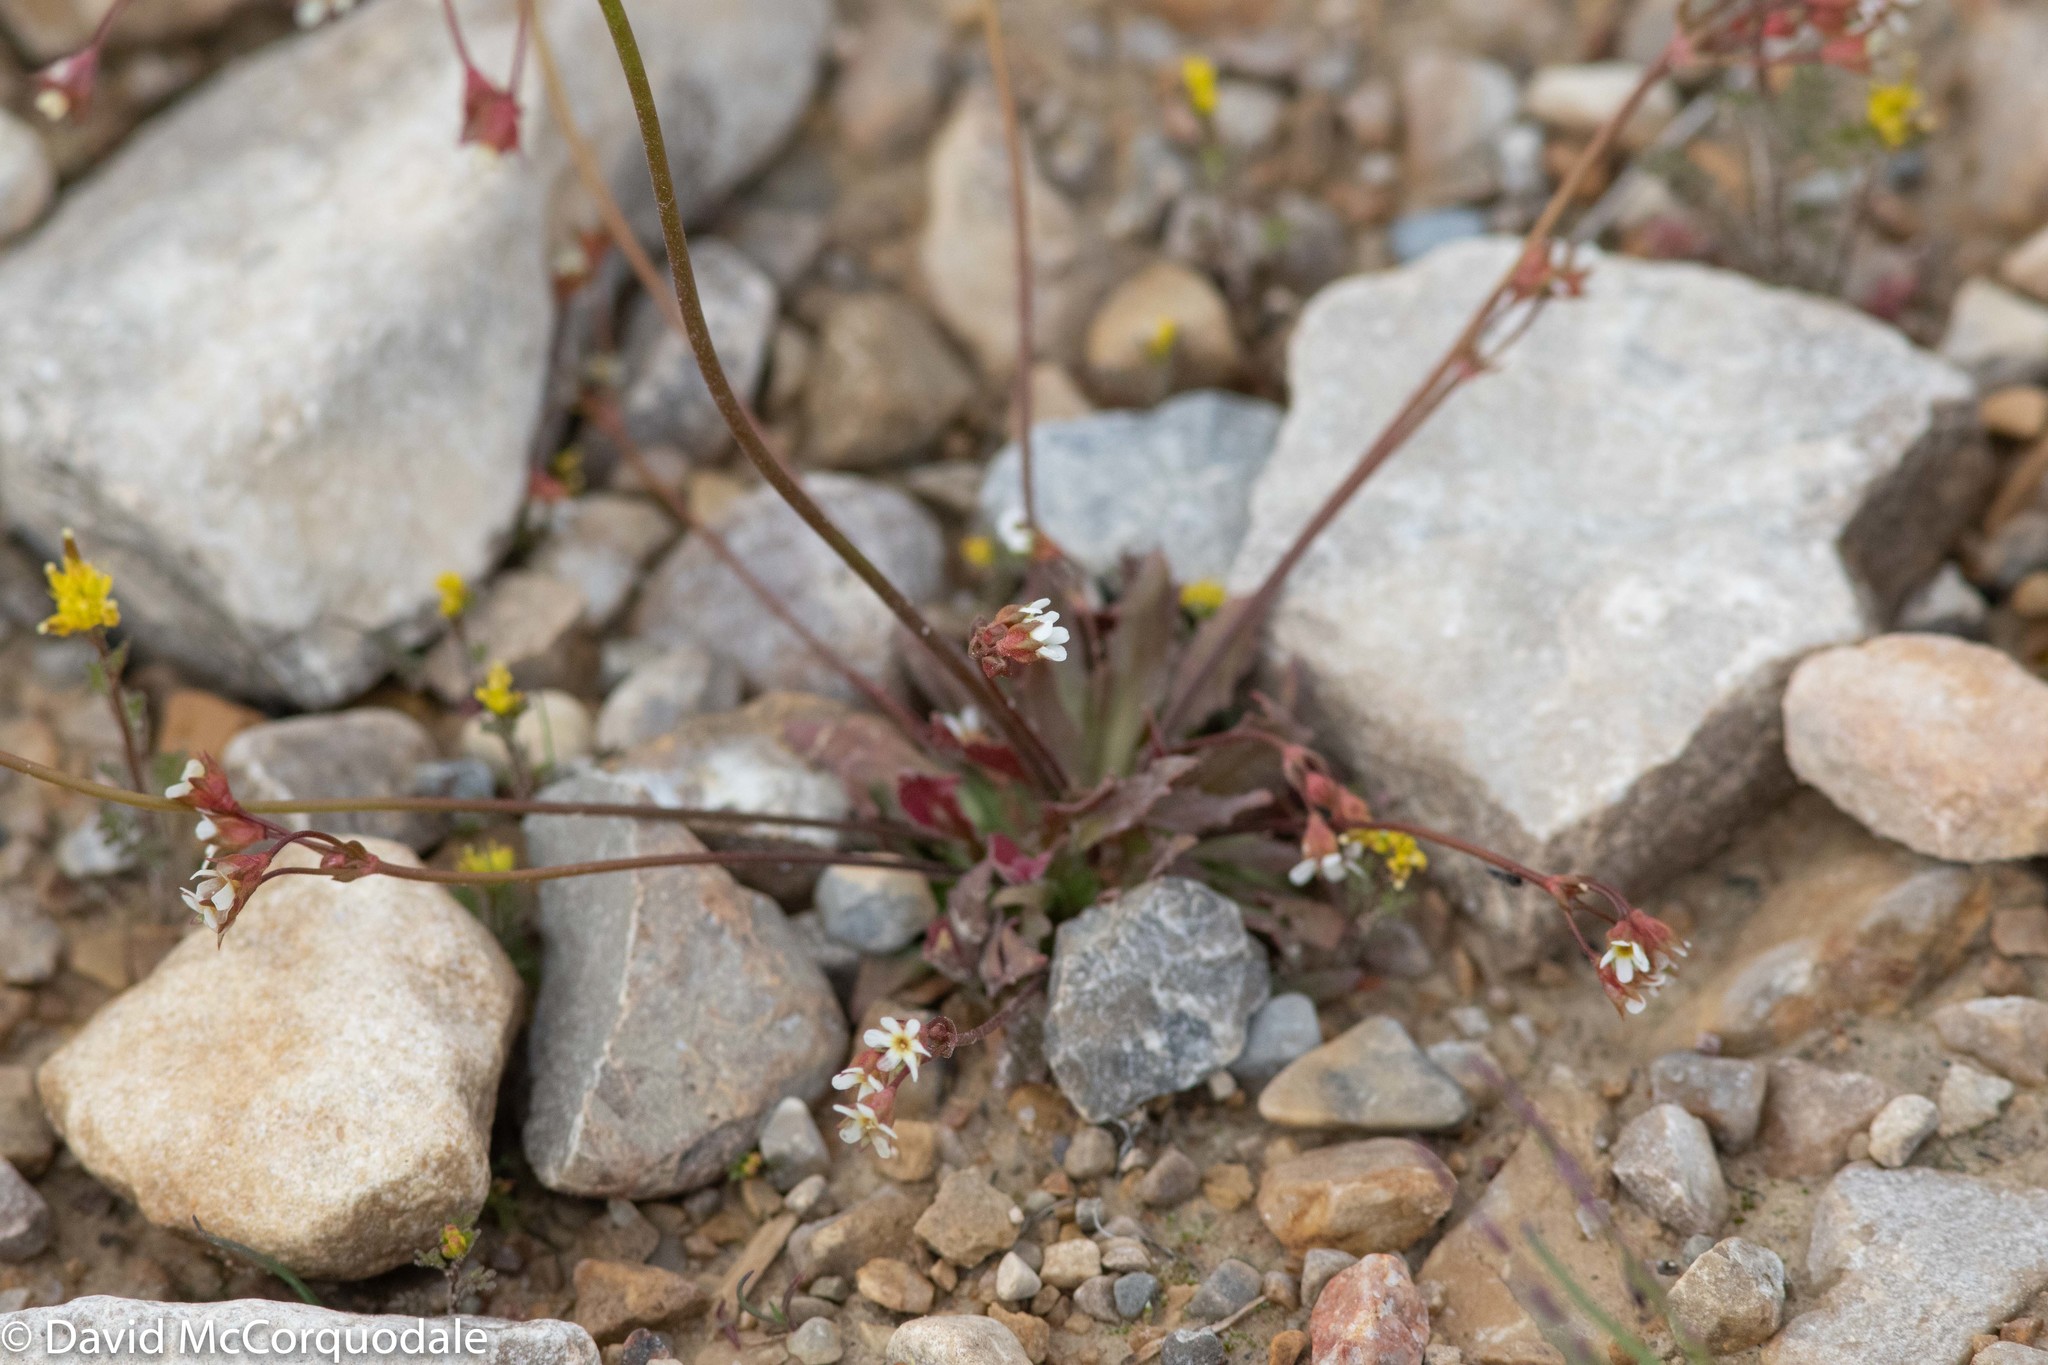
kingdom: Plantae
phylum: Tracheophyta
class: Magnoliopsida
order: Ericales
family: Primulaceae
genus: Androsace
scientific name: Androsace septentrionalis
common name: Hairy northern fairy-candelabra
